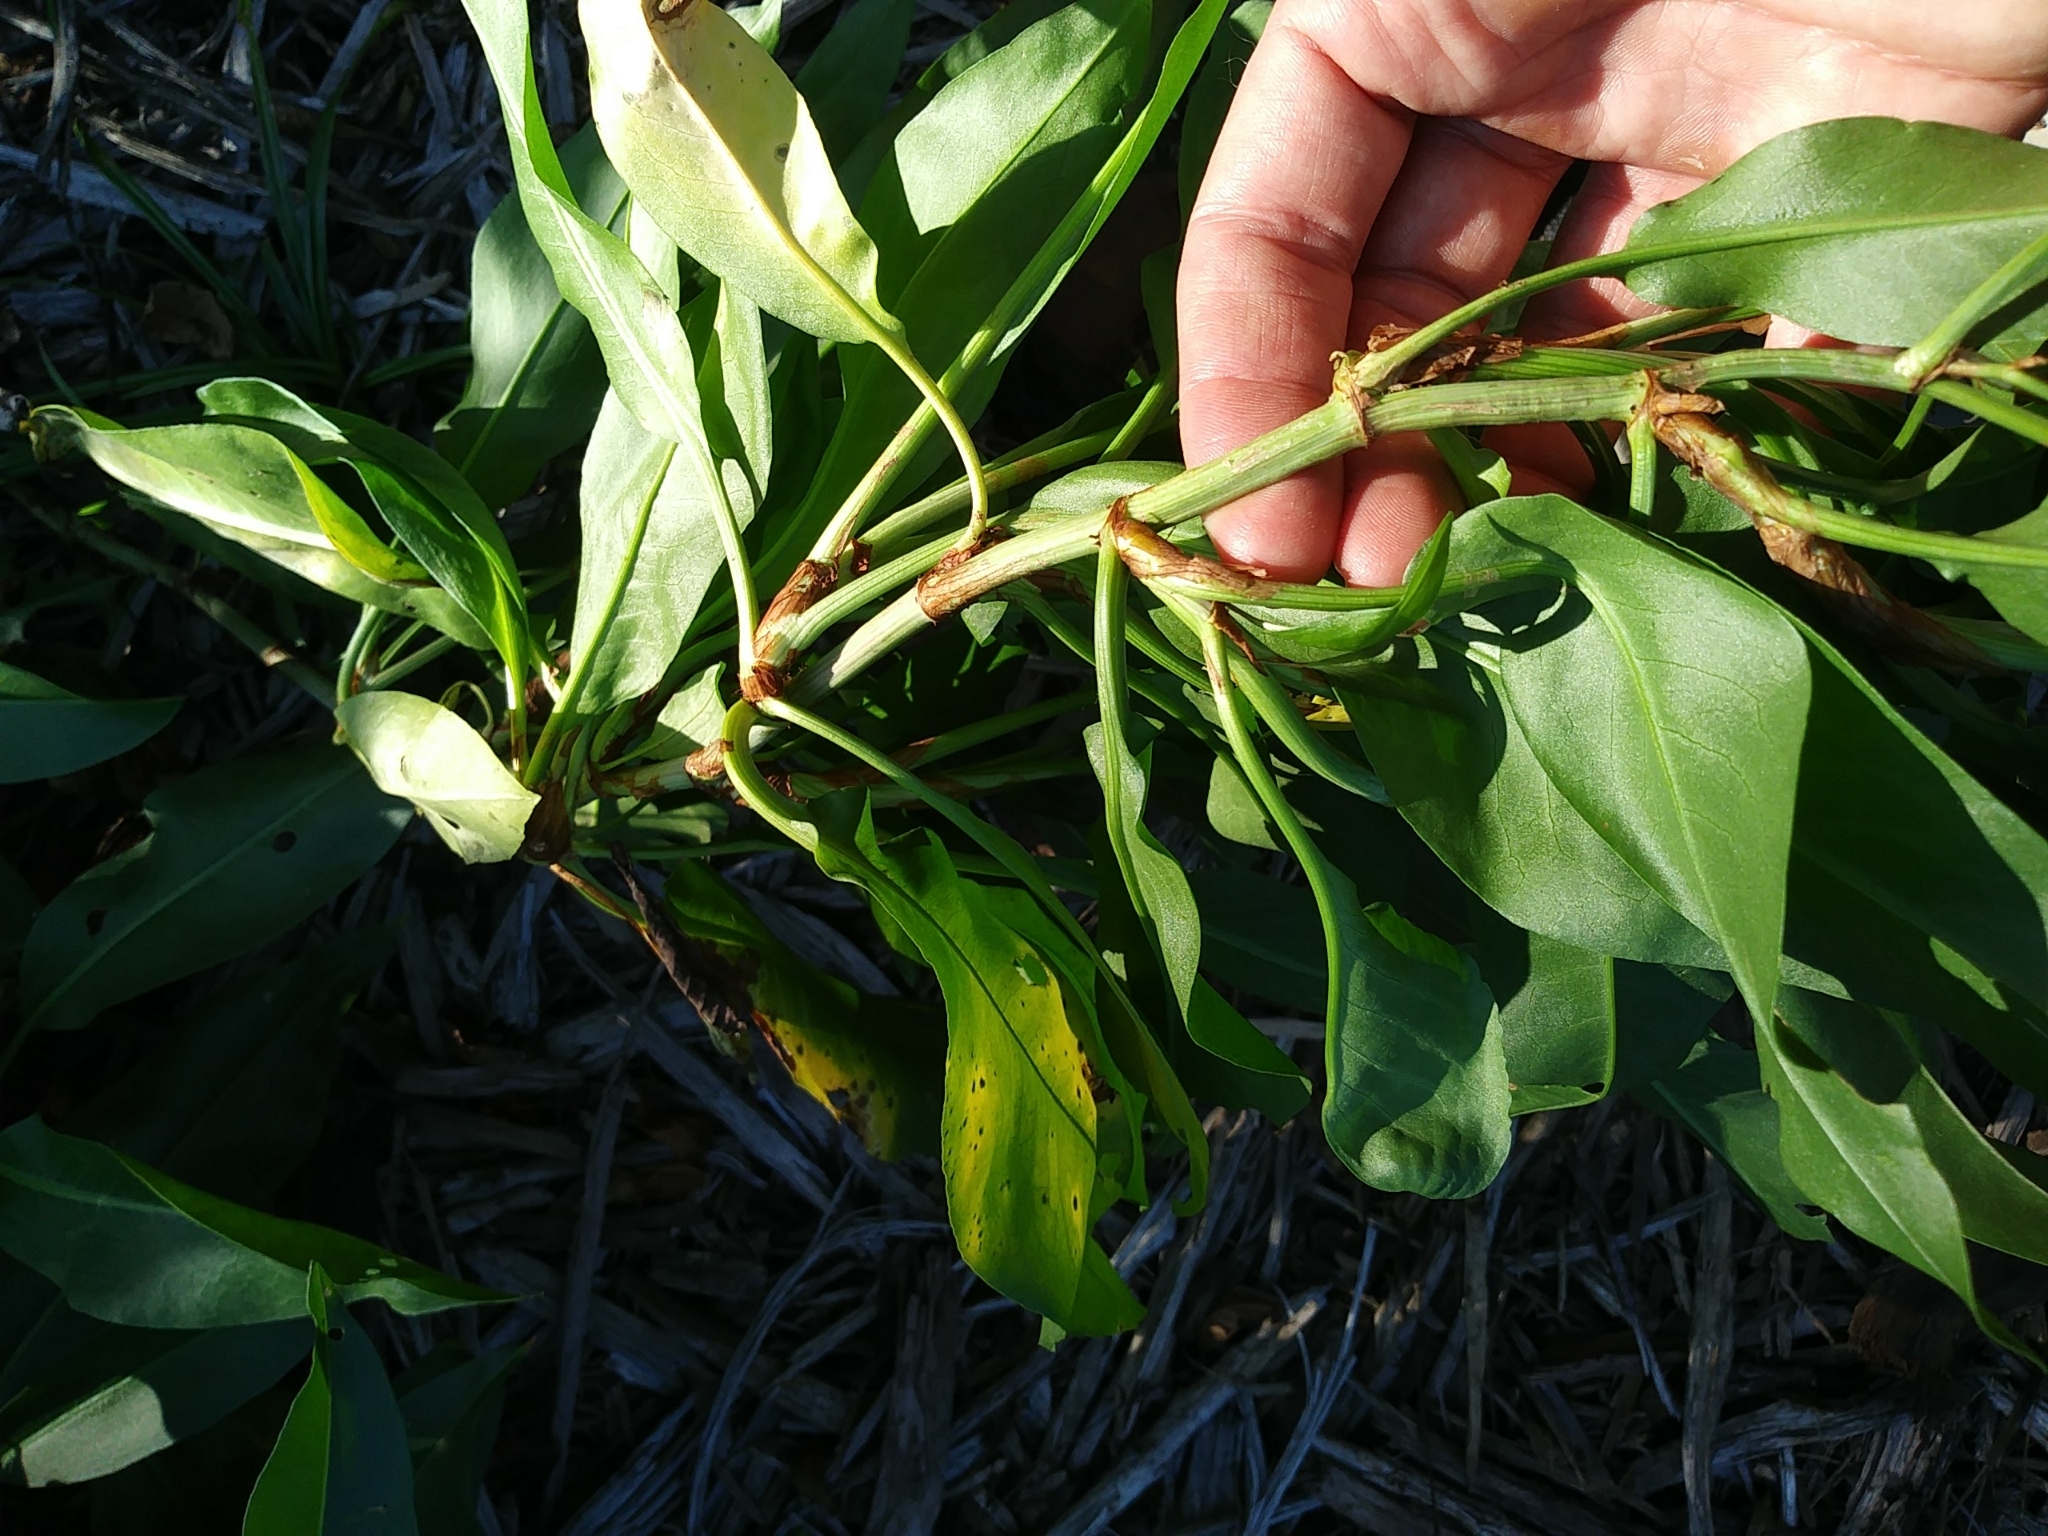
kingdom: Plantae
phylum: Tracheophyta
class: Magnoliopsida
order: Caryophyllales
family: Polygonaceae
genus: Rumex
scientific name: Rumex altissimus
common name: Smooth dock
